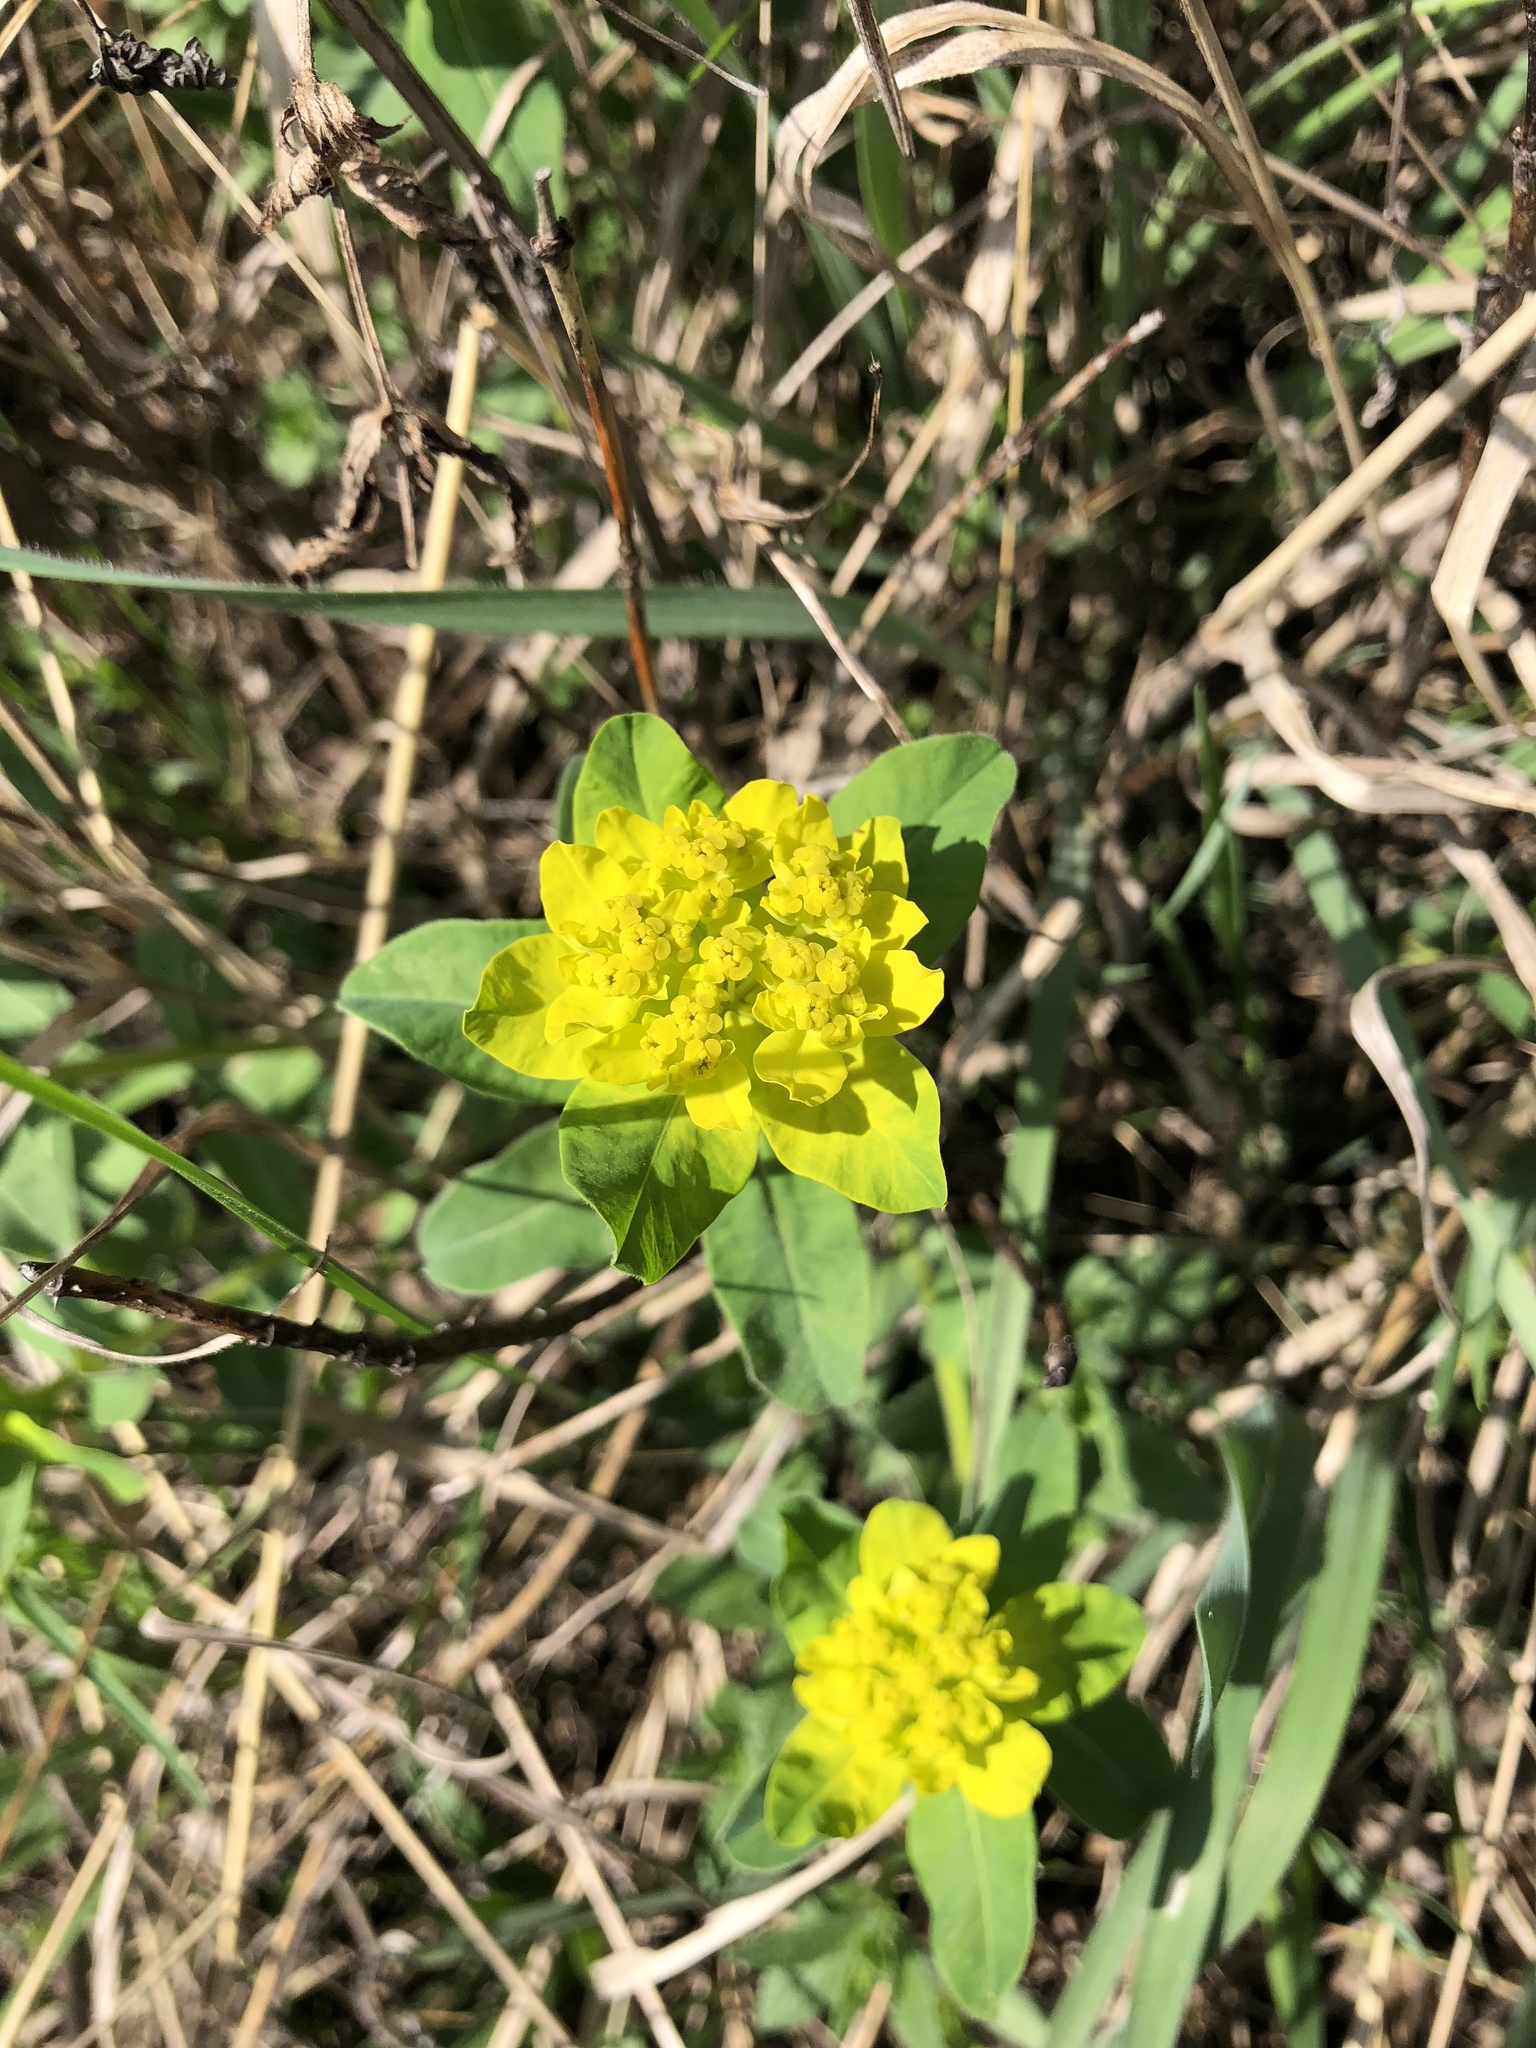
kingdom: Plantae
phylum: Tracheophyta
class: Magnoliopsida
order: Malpighiales
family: Euphorbiaceae
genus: Euphorbia
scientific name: Euphorbia epithymoides
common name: Cushion spurge
